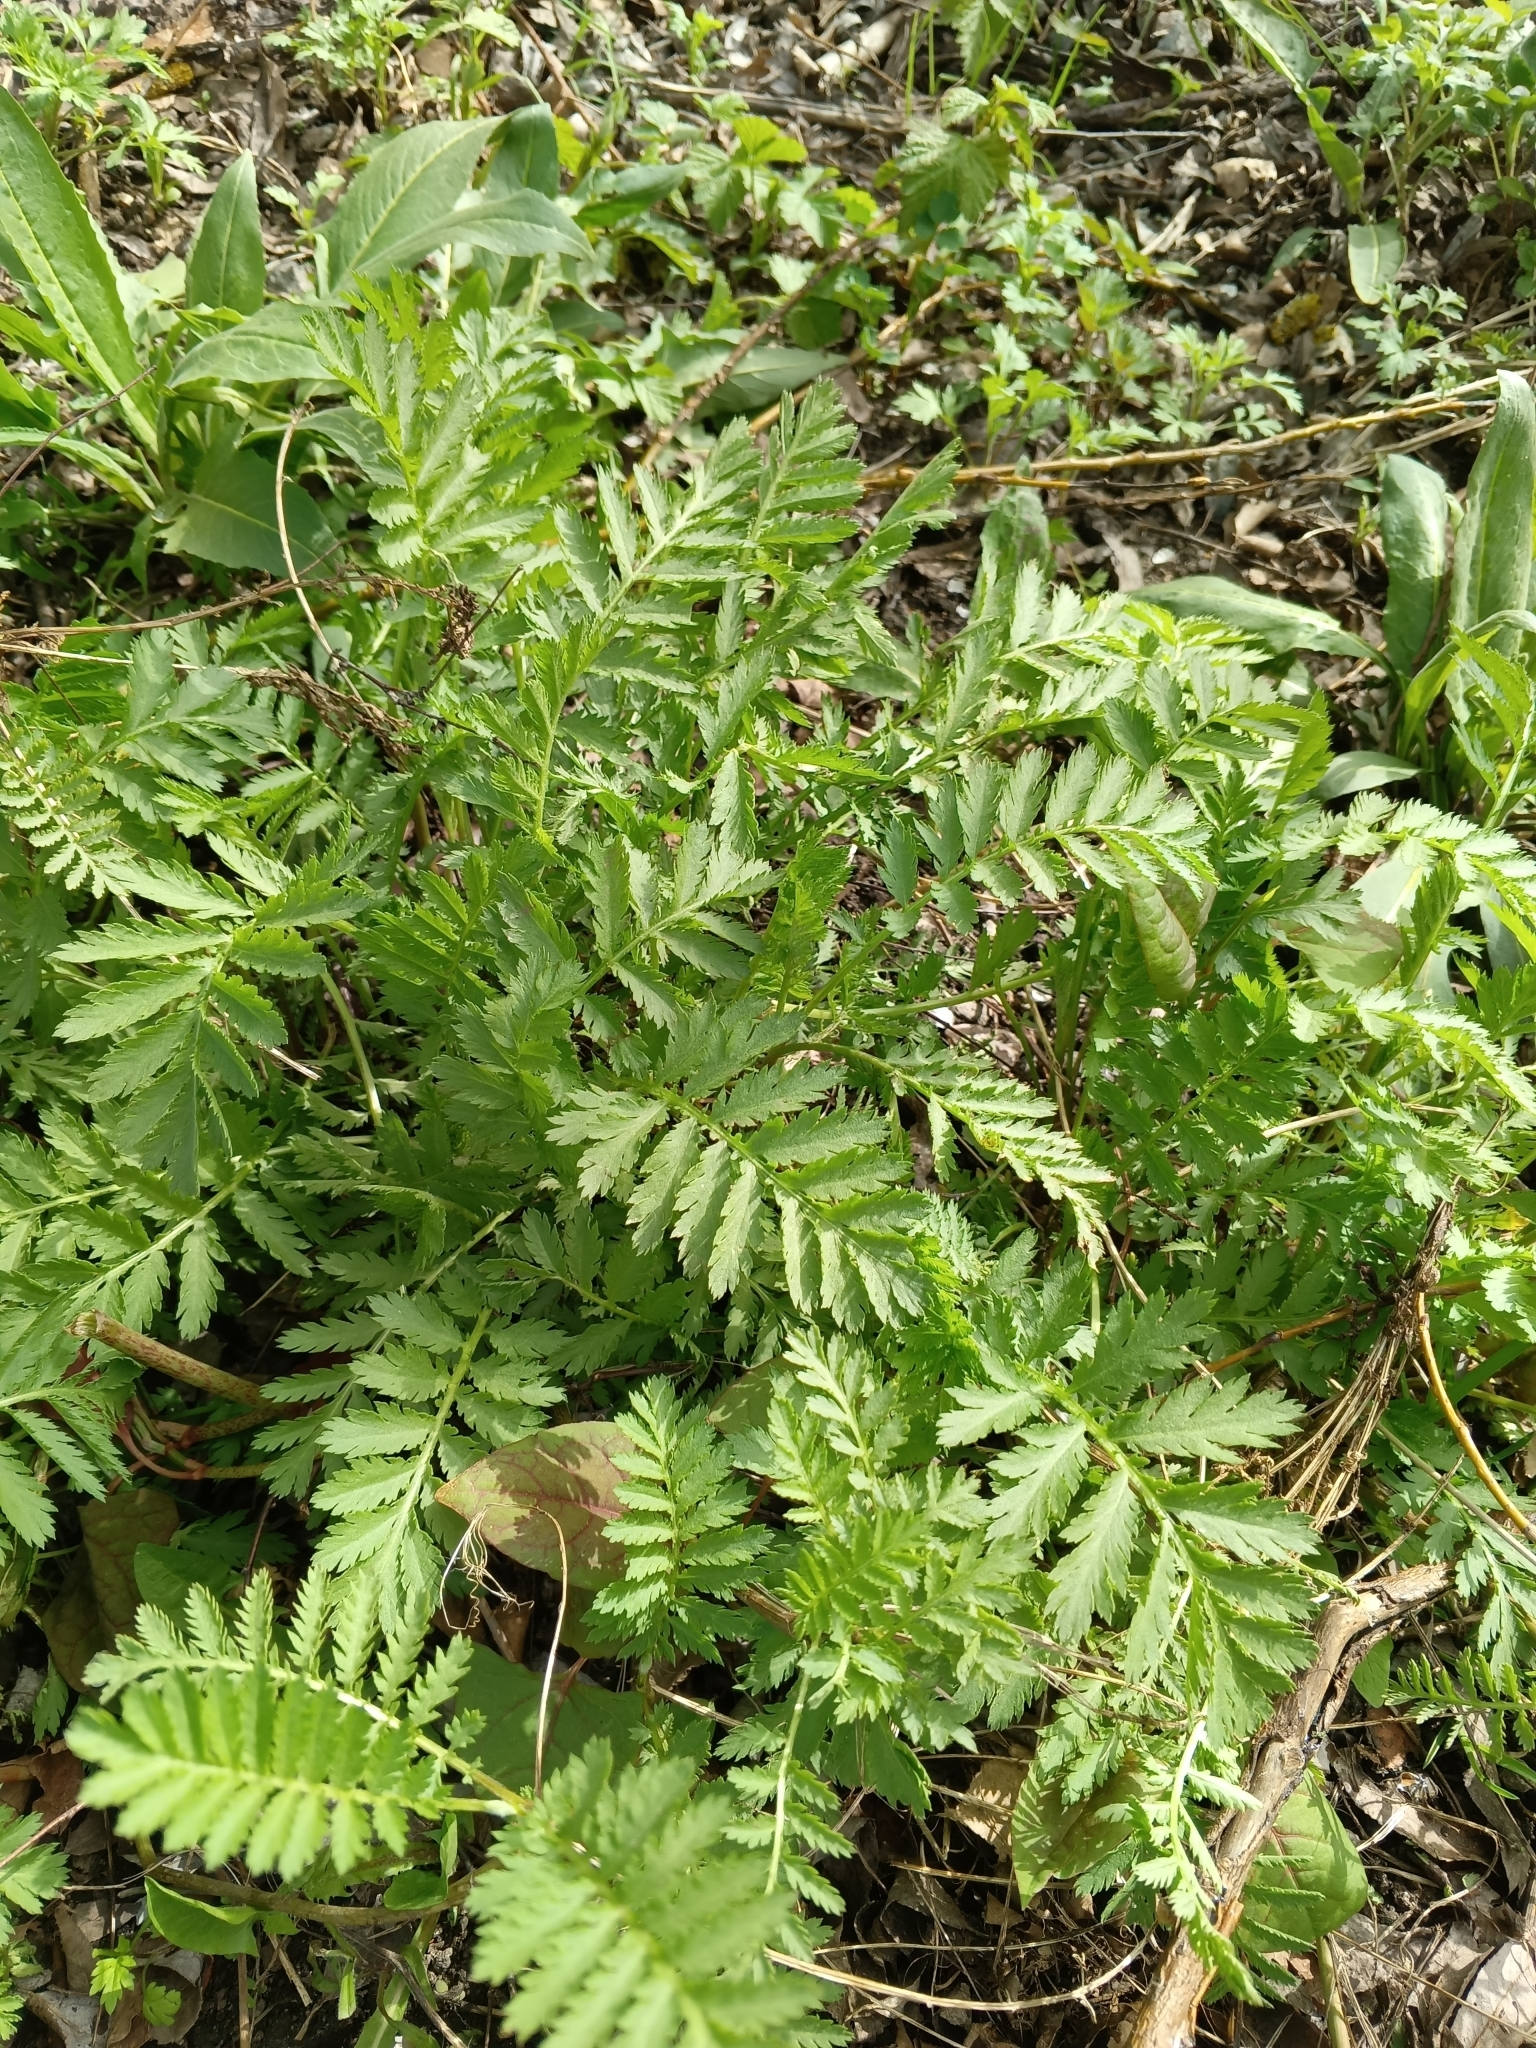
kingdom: Plantae
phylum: Tracheophyta
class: Magnoliopsida
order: Asterales
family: Asteraceae
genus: Tanacetum
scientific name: Tanacetum vulgare
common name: Common tansy
